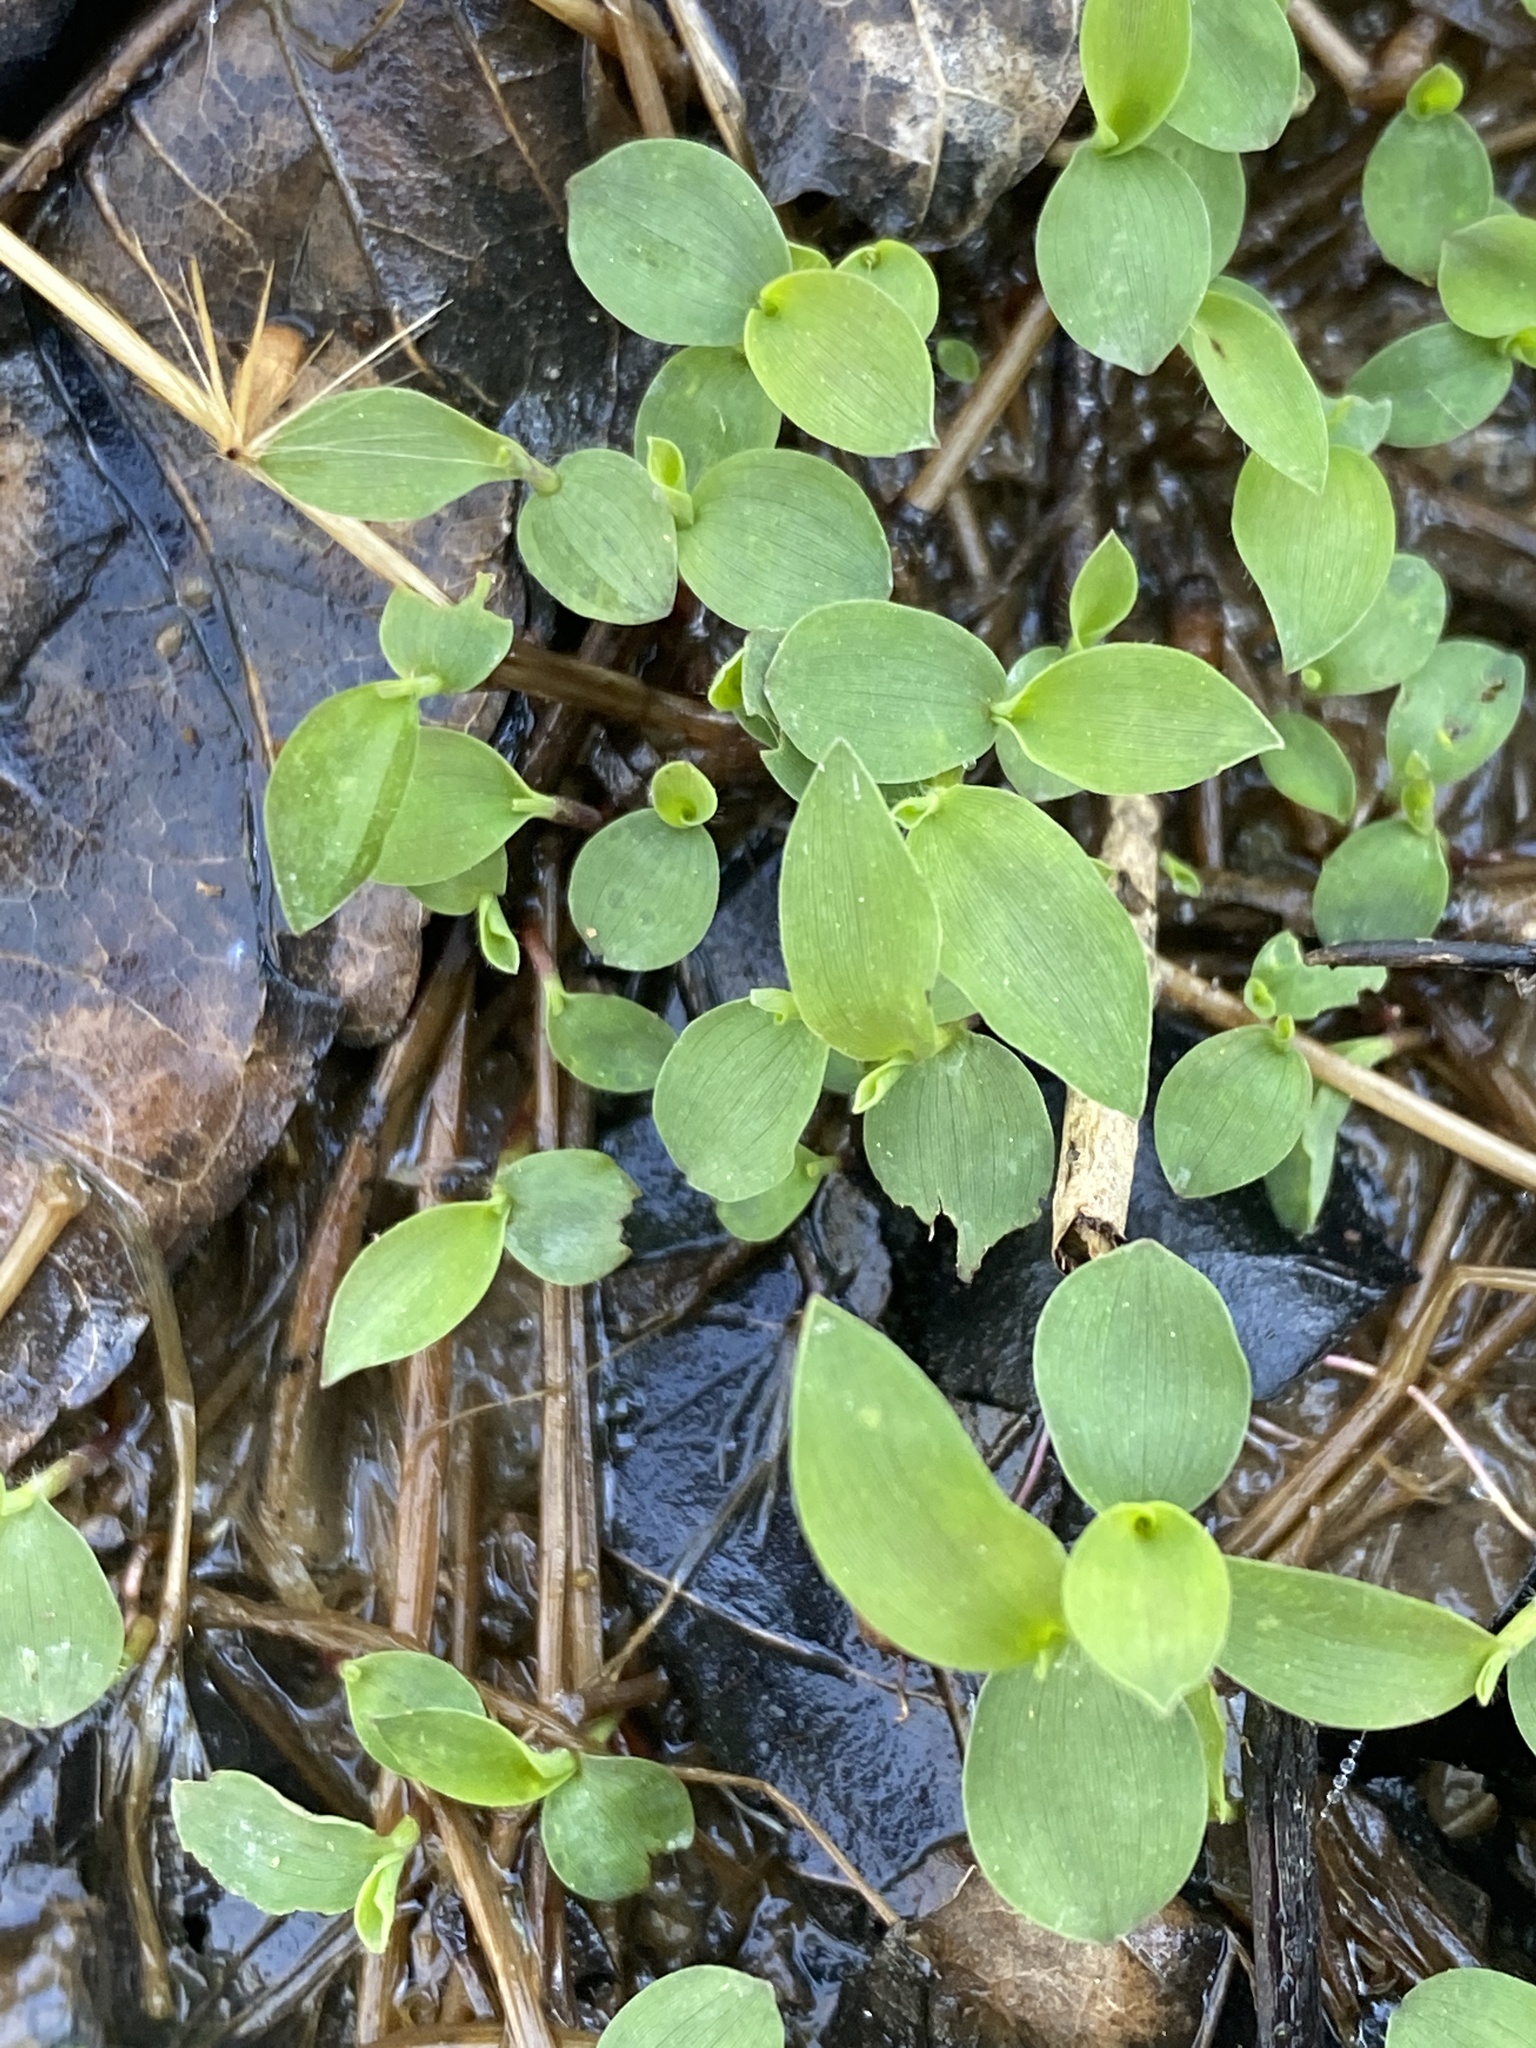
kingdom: Plantae
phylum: Tracheophyta
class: Liliopsida
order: Poales
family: Poaceae
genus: Microstegium
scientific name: Microstegium vimineum
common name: Japanese stiltgrass
